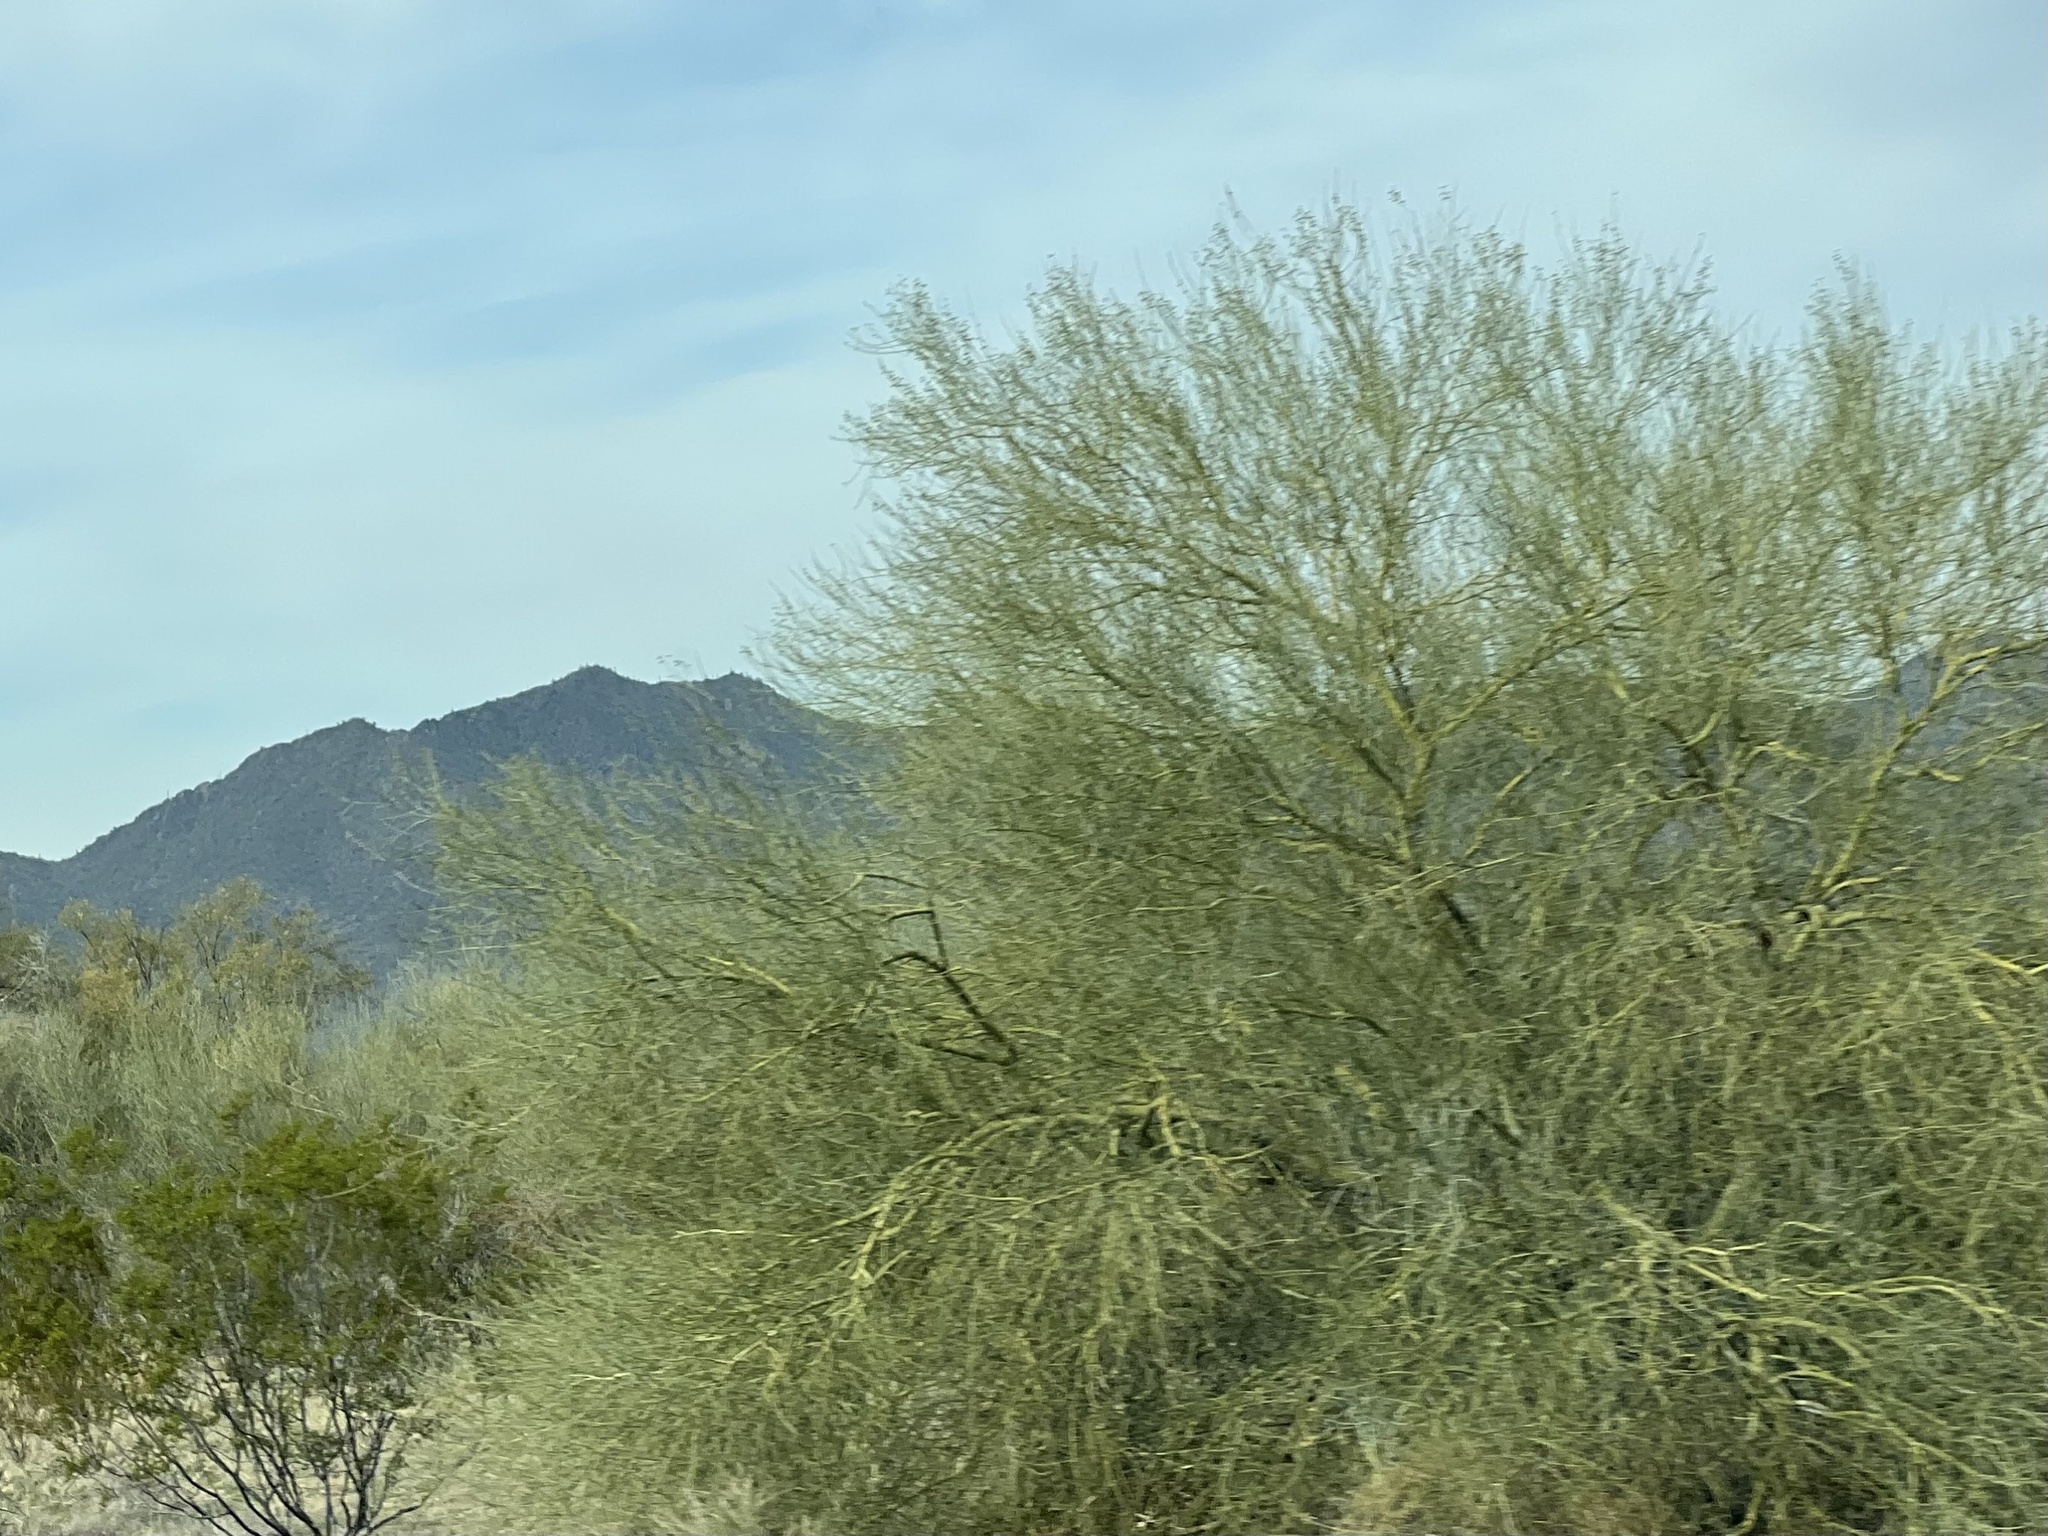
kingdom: Plantae
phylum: Tracheophyta
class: Magnoliopsida
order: Fabales
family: Fabaceae
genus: Parkinsonia
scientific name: Parkinsonia microphylla
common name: Yellow paloverde
